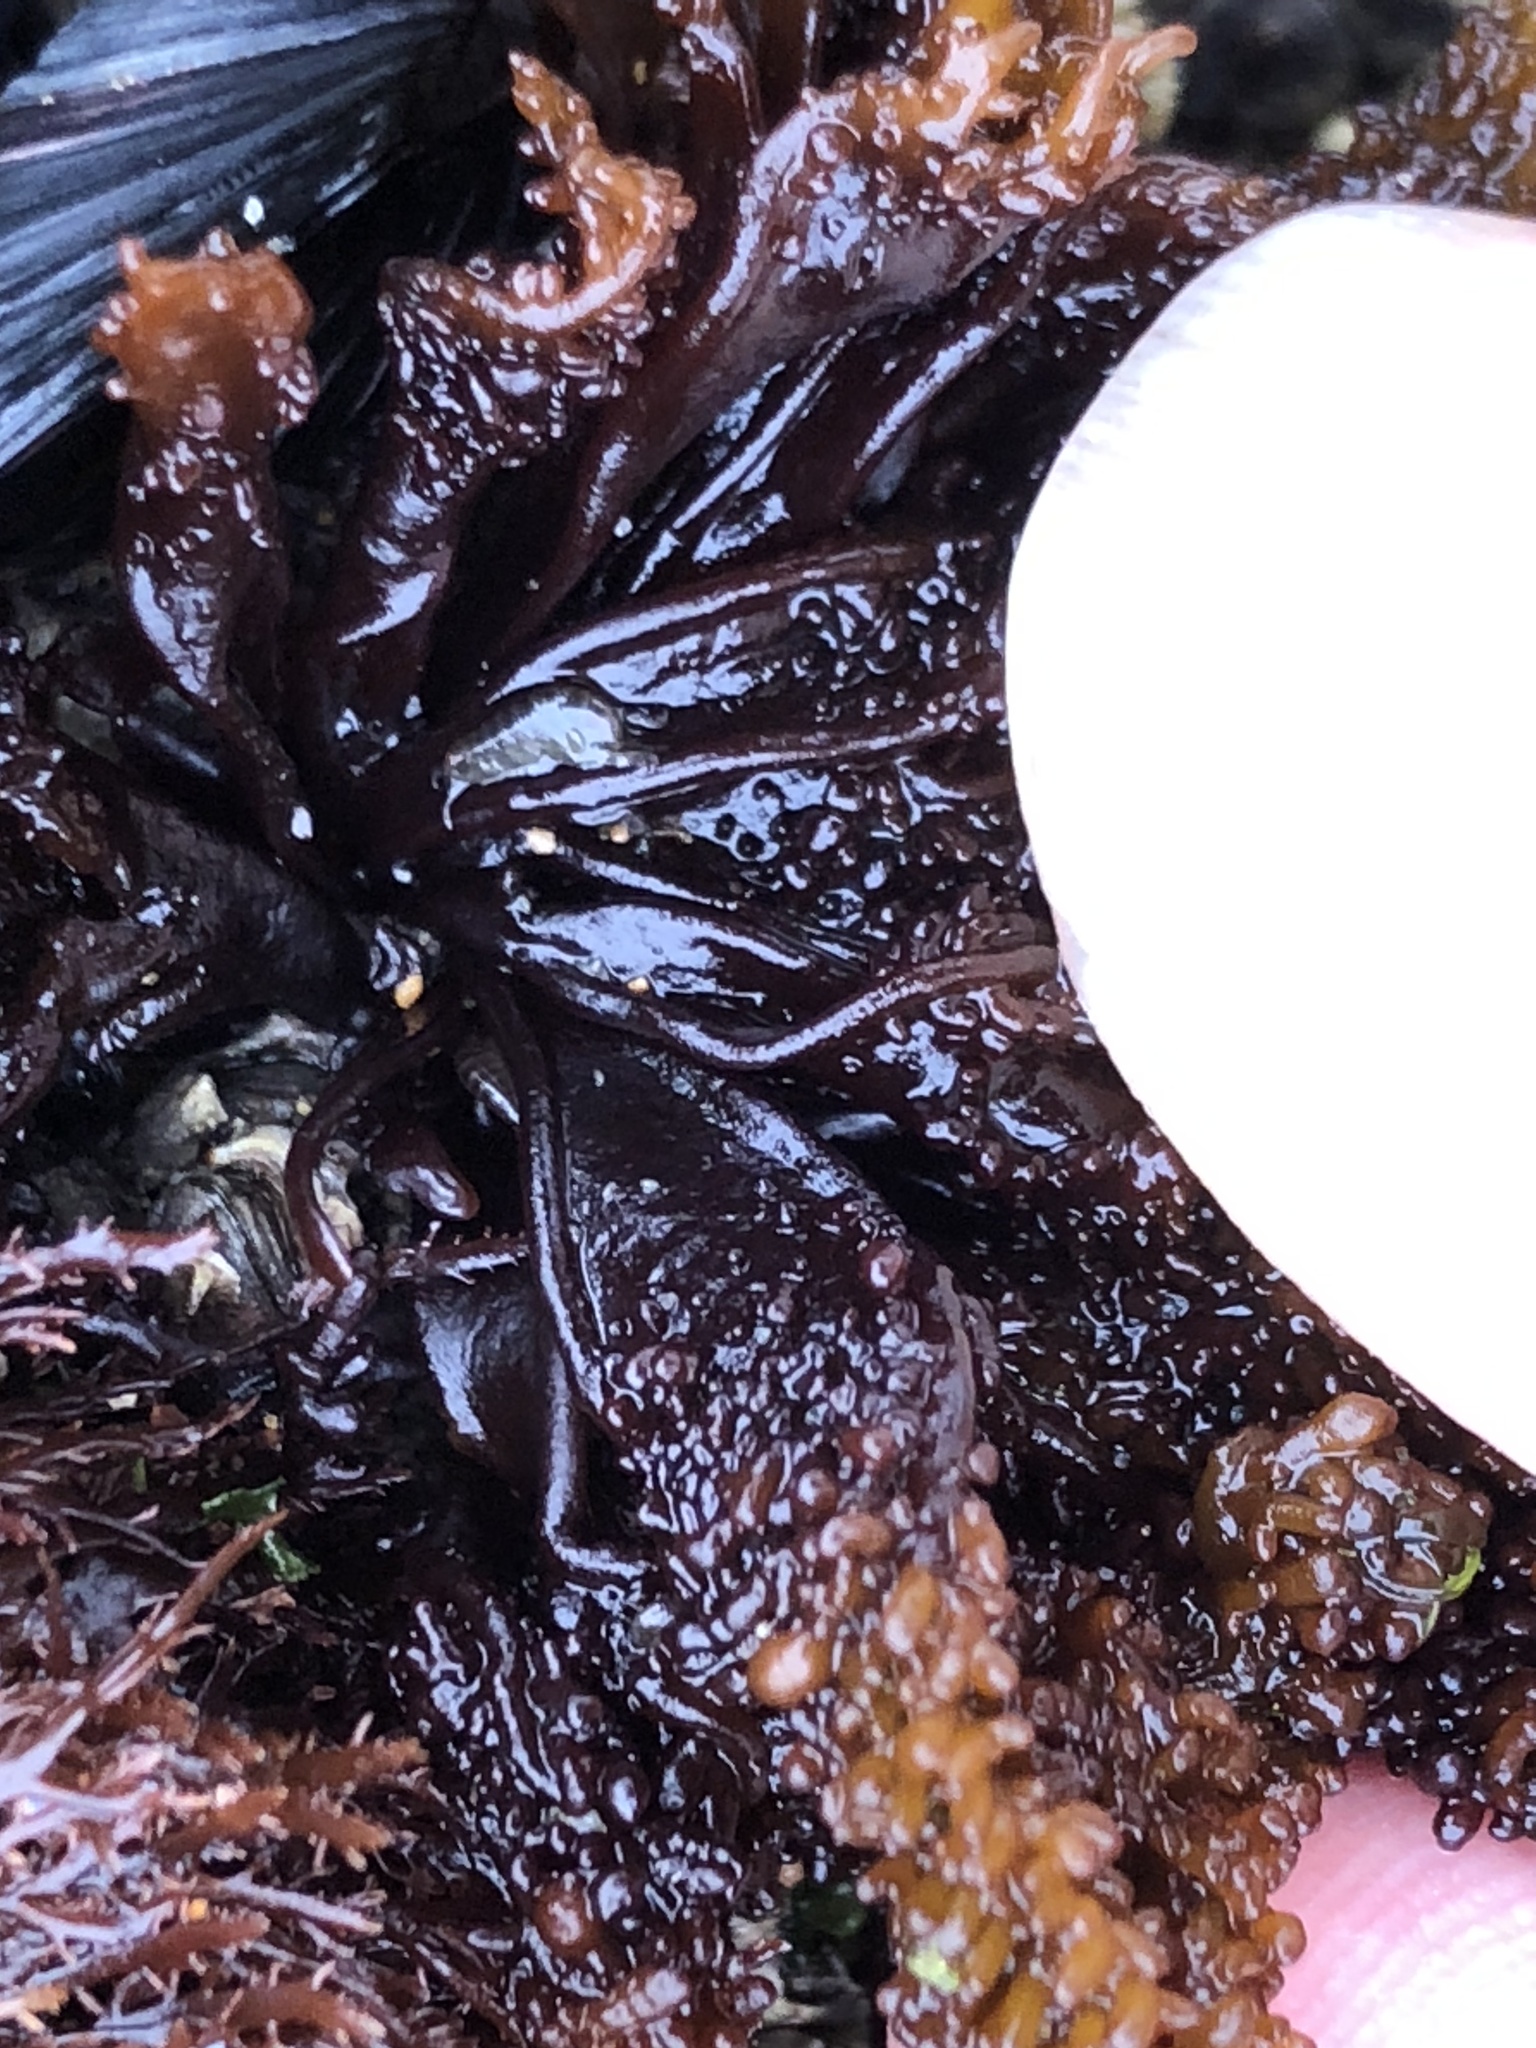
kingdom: Plantae
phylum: Rhodophyta
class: Florideophyceae
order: Gigartinales
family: Phyllophoraceae
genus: Mastocarpus
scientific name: Mastocarpus papillatus
